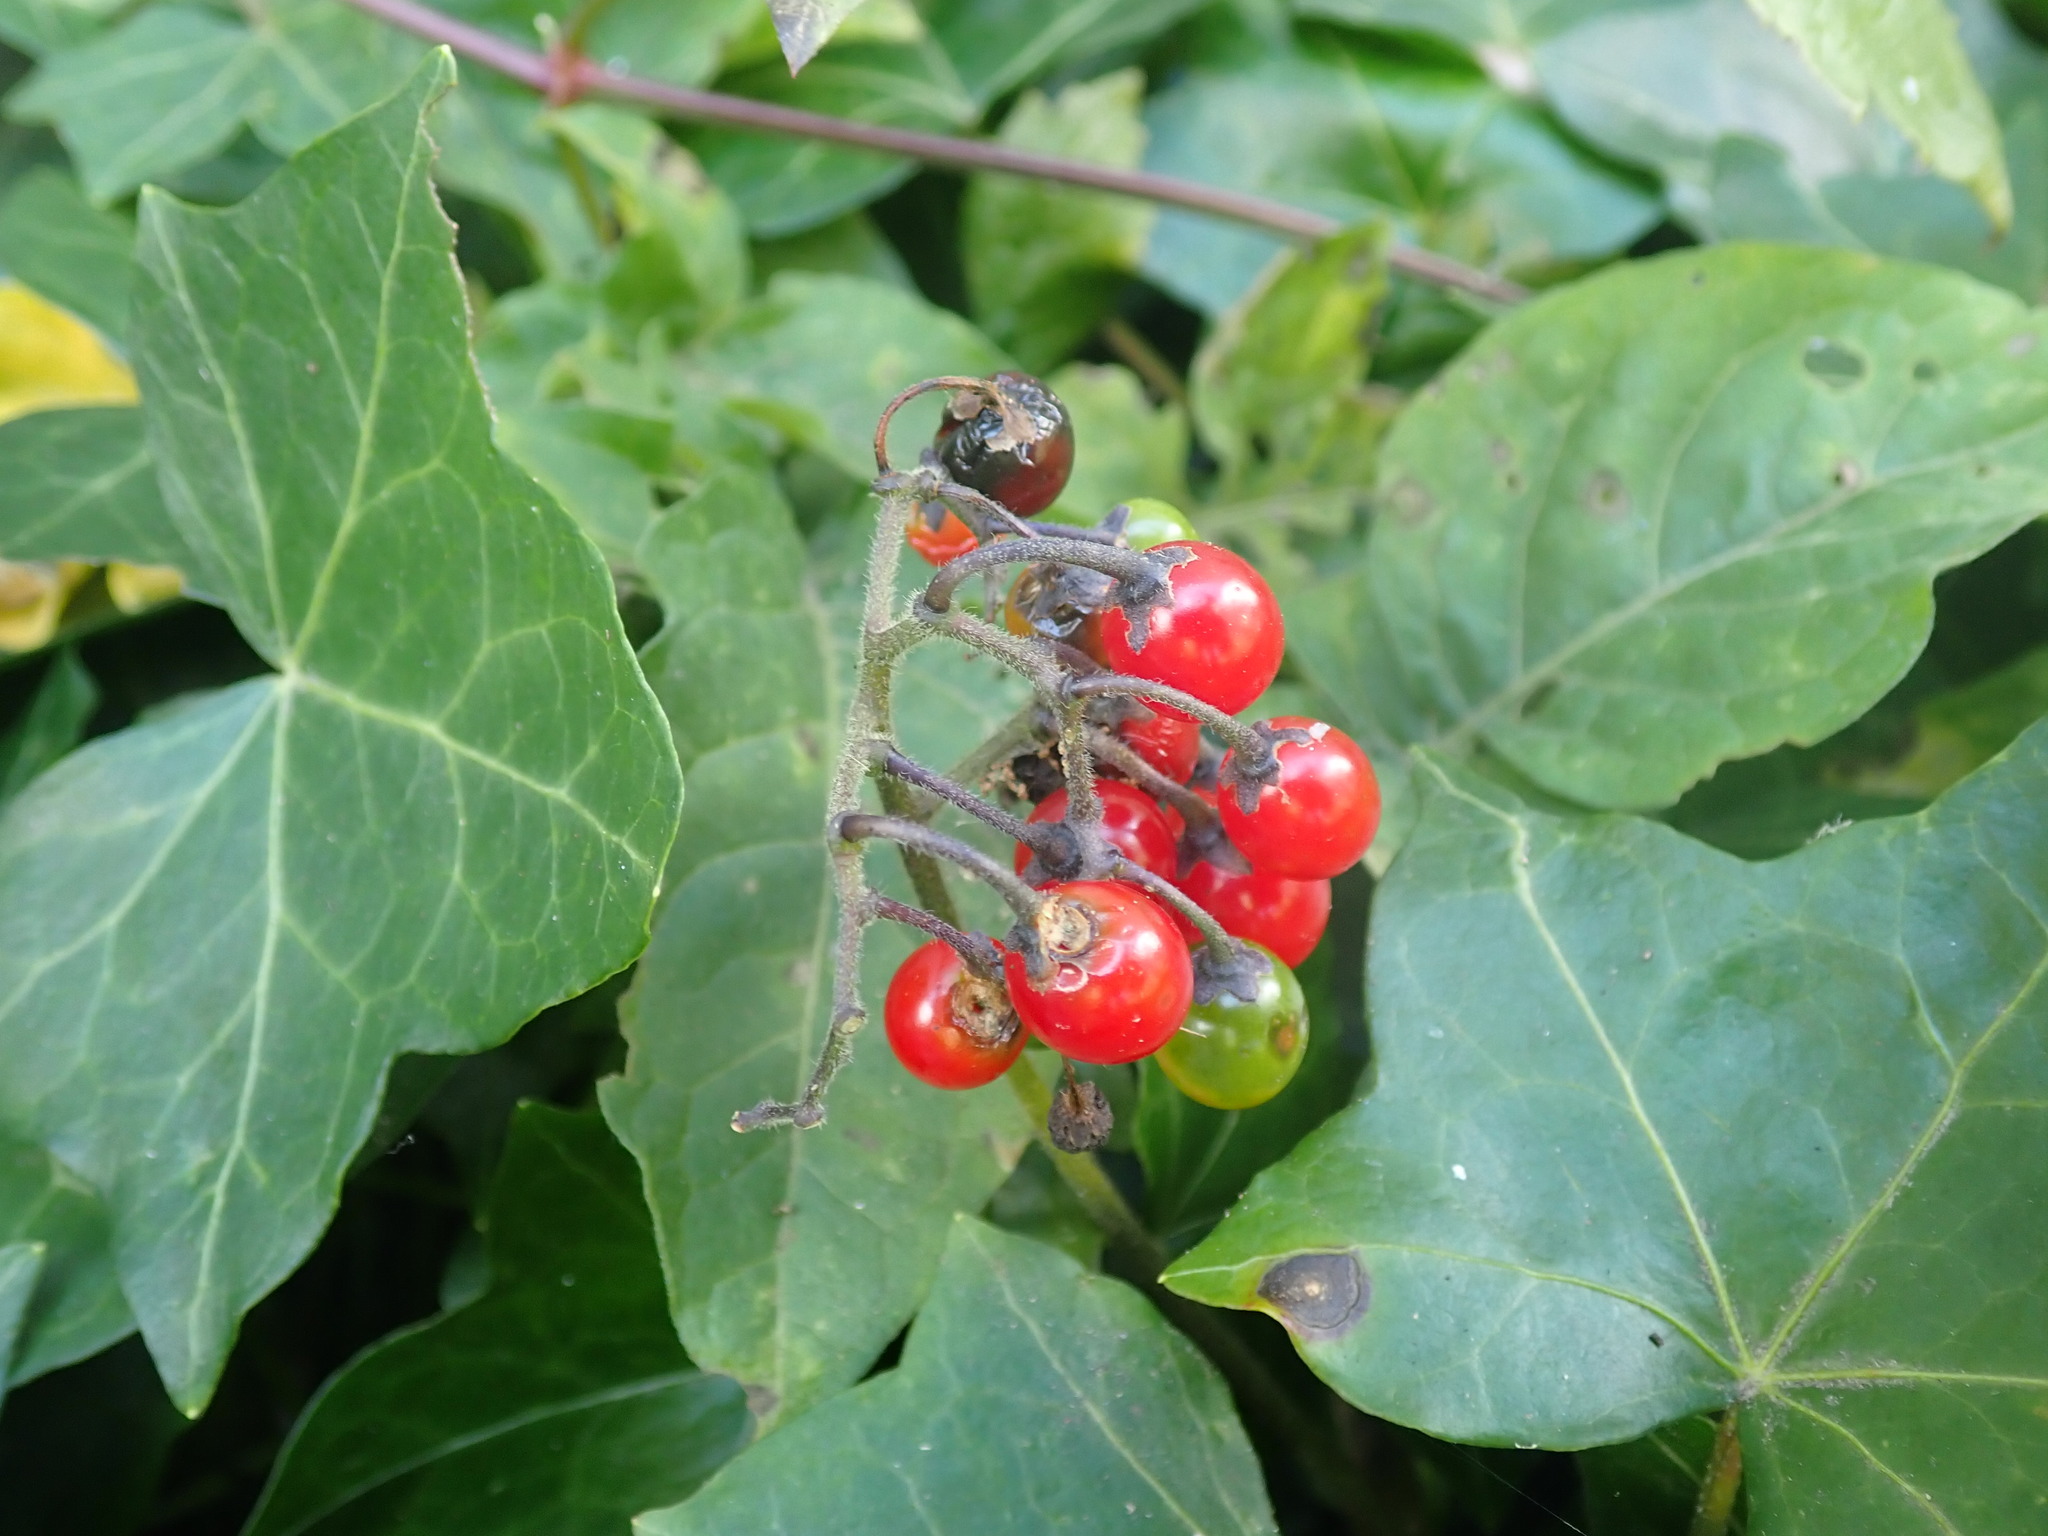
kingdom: Plantae
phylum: Tracheophyta
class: Magnoliopsida
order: Solanales
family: Solanaceae
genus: Solanum
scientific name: Solanum dulcamara
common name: Climbing nightshade
